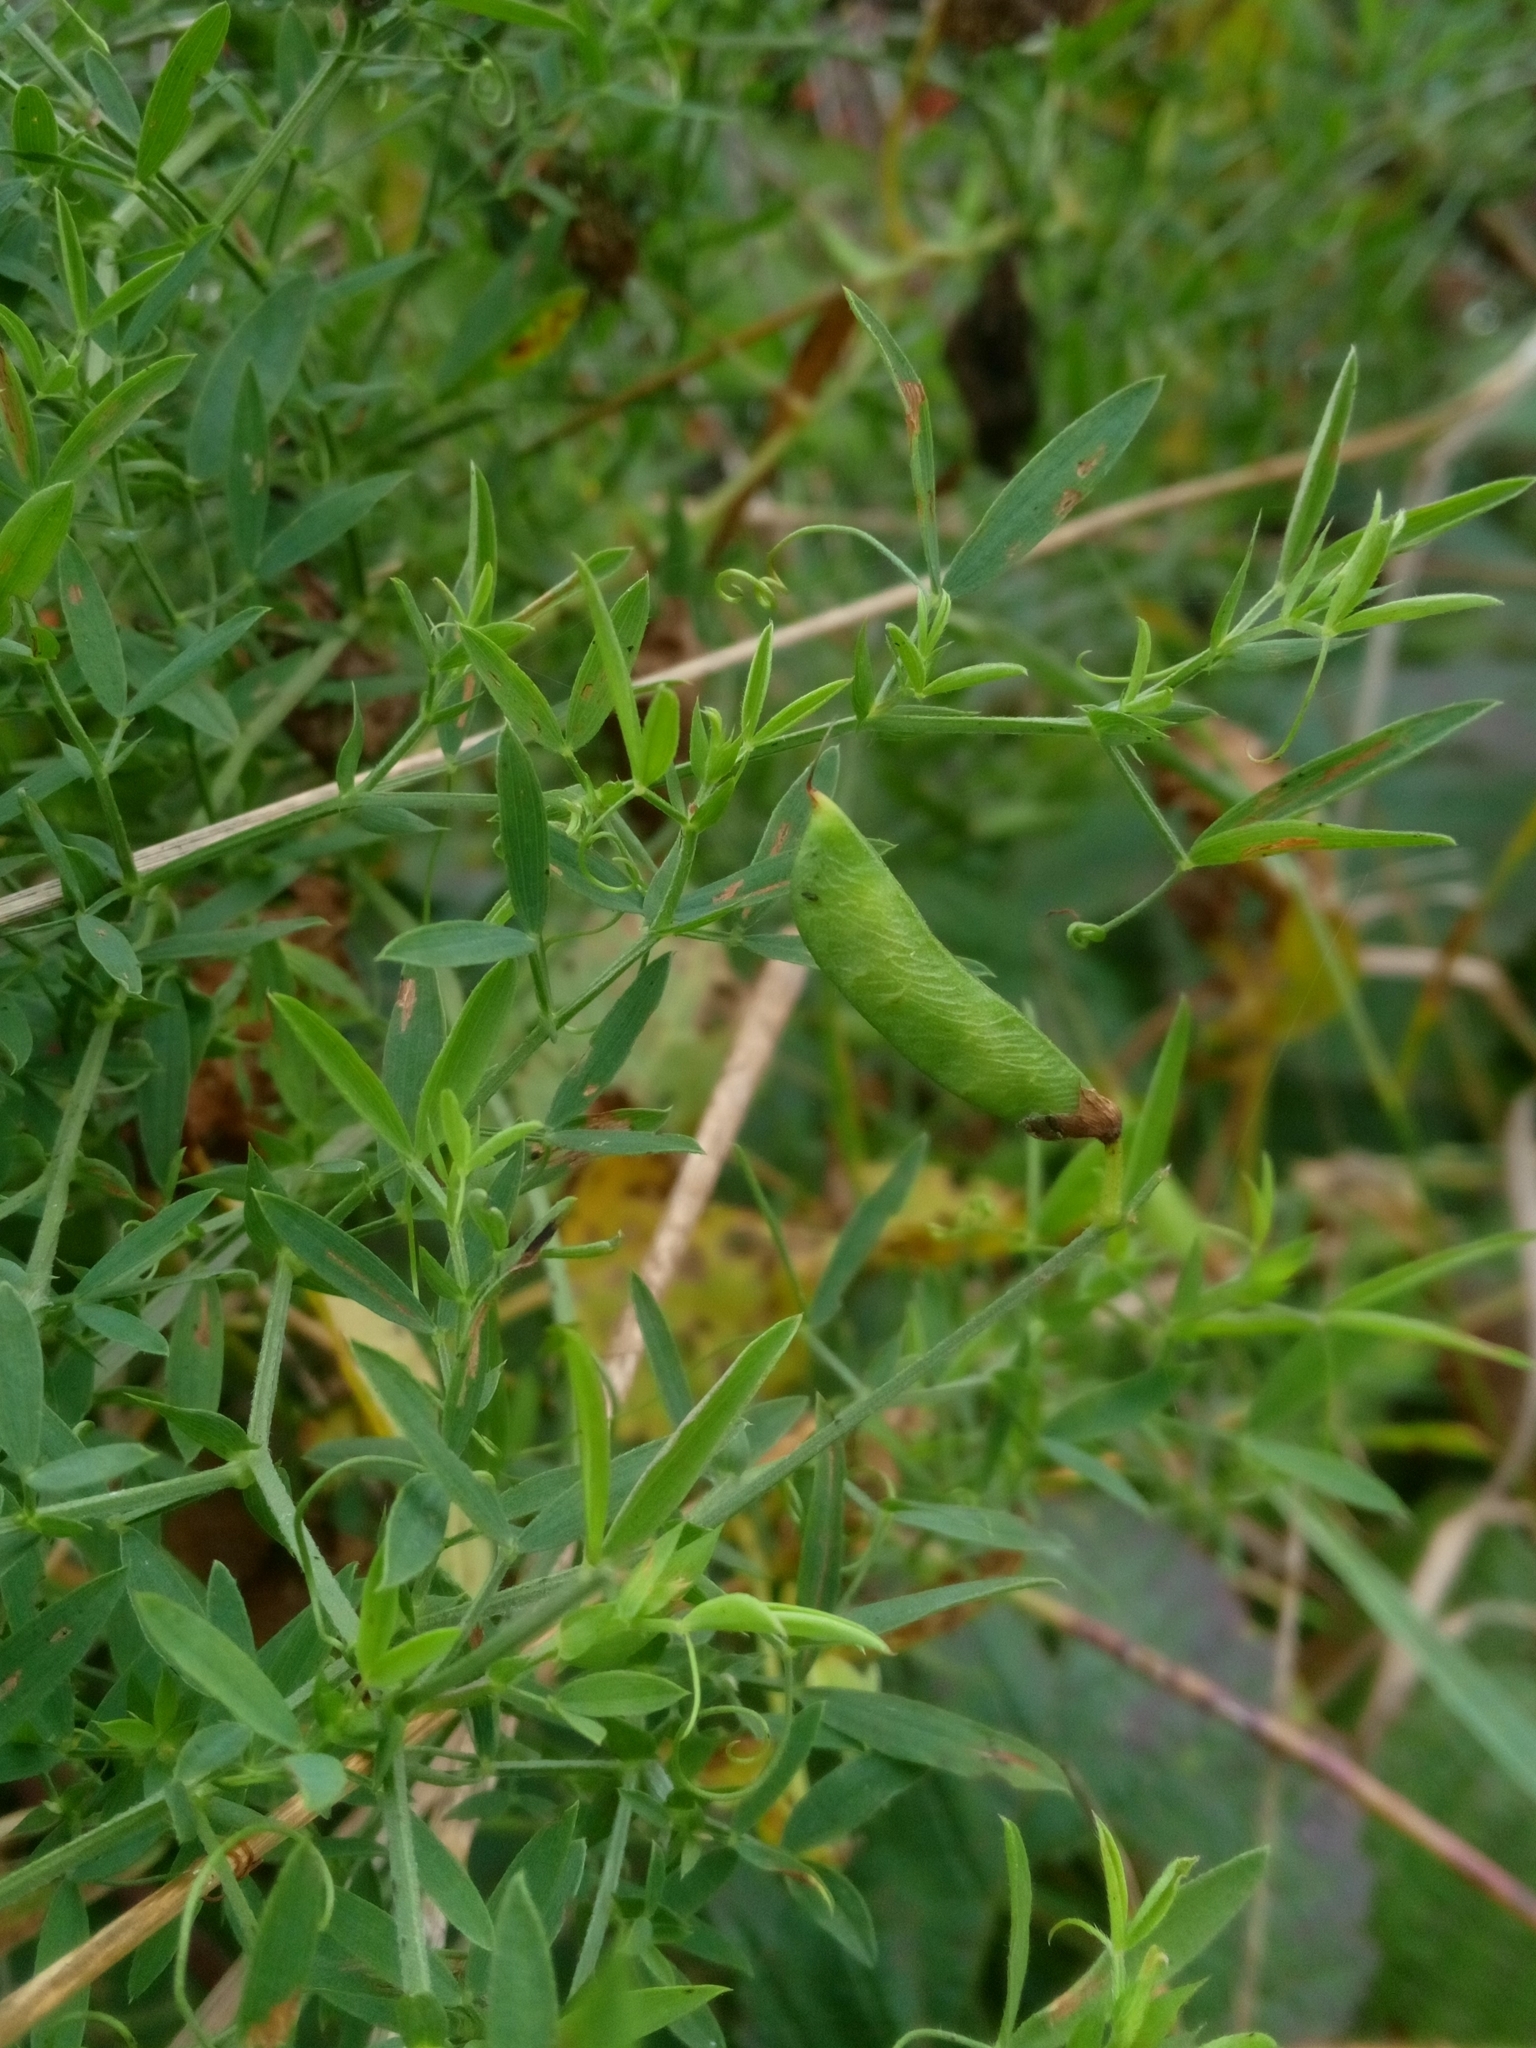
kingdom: Plantae
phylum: Tracheophyta
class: Magnoliopsida
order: Fabales
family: Fabaceae
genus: Lathyrus
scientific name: Lathyrus pratensis
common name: Meadow vetchling
